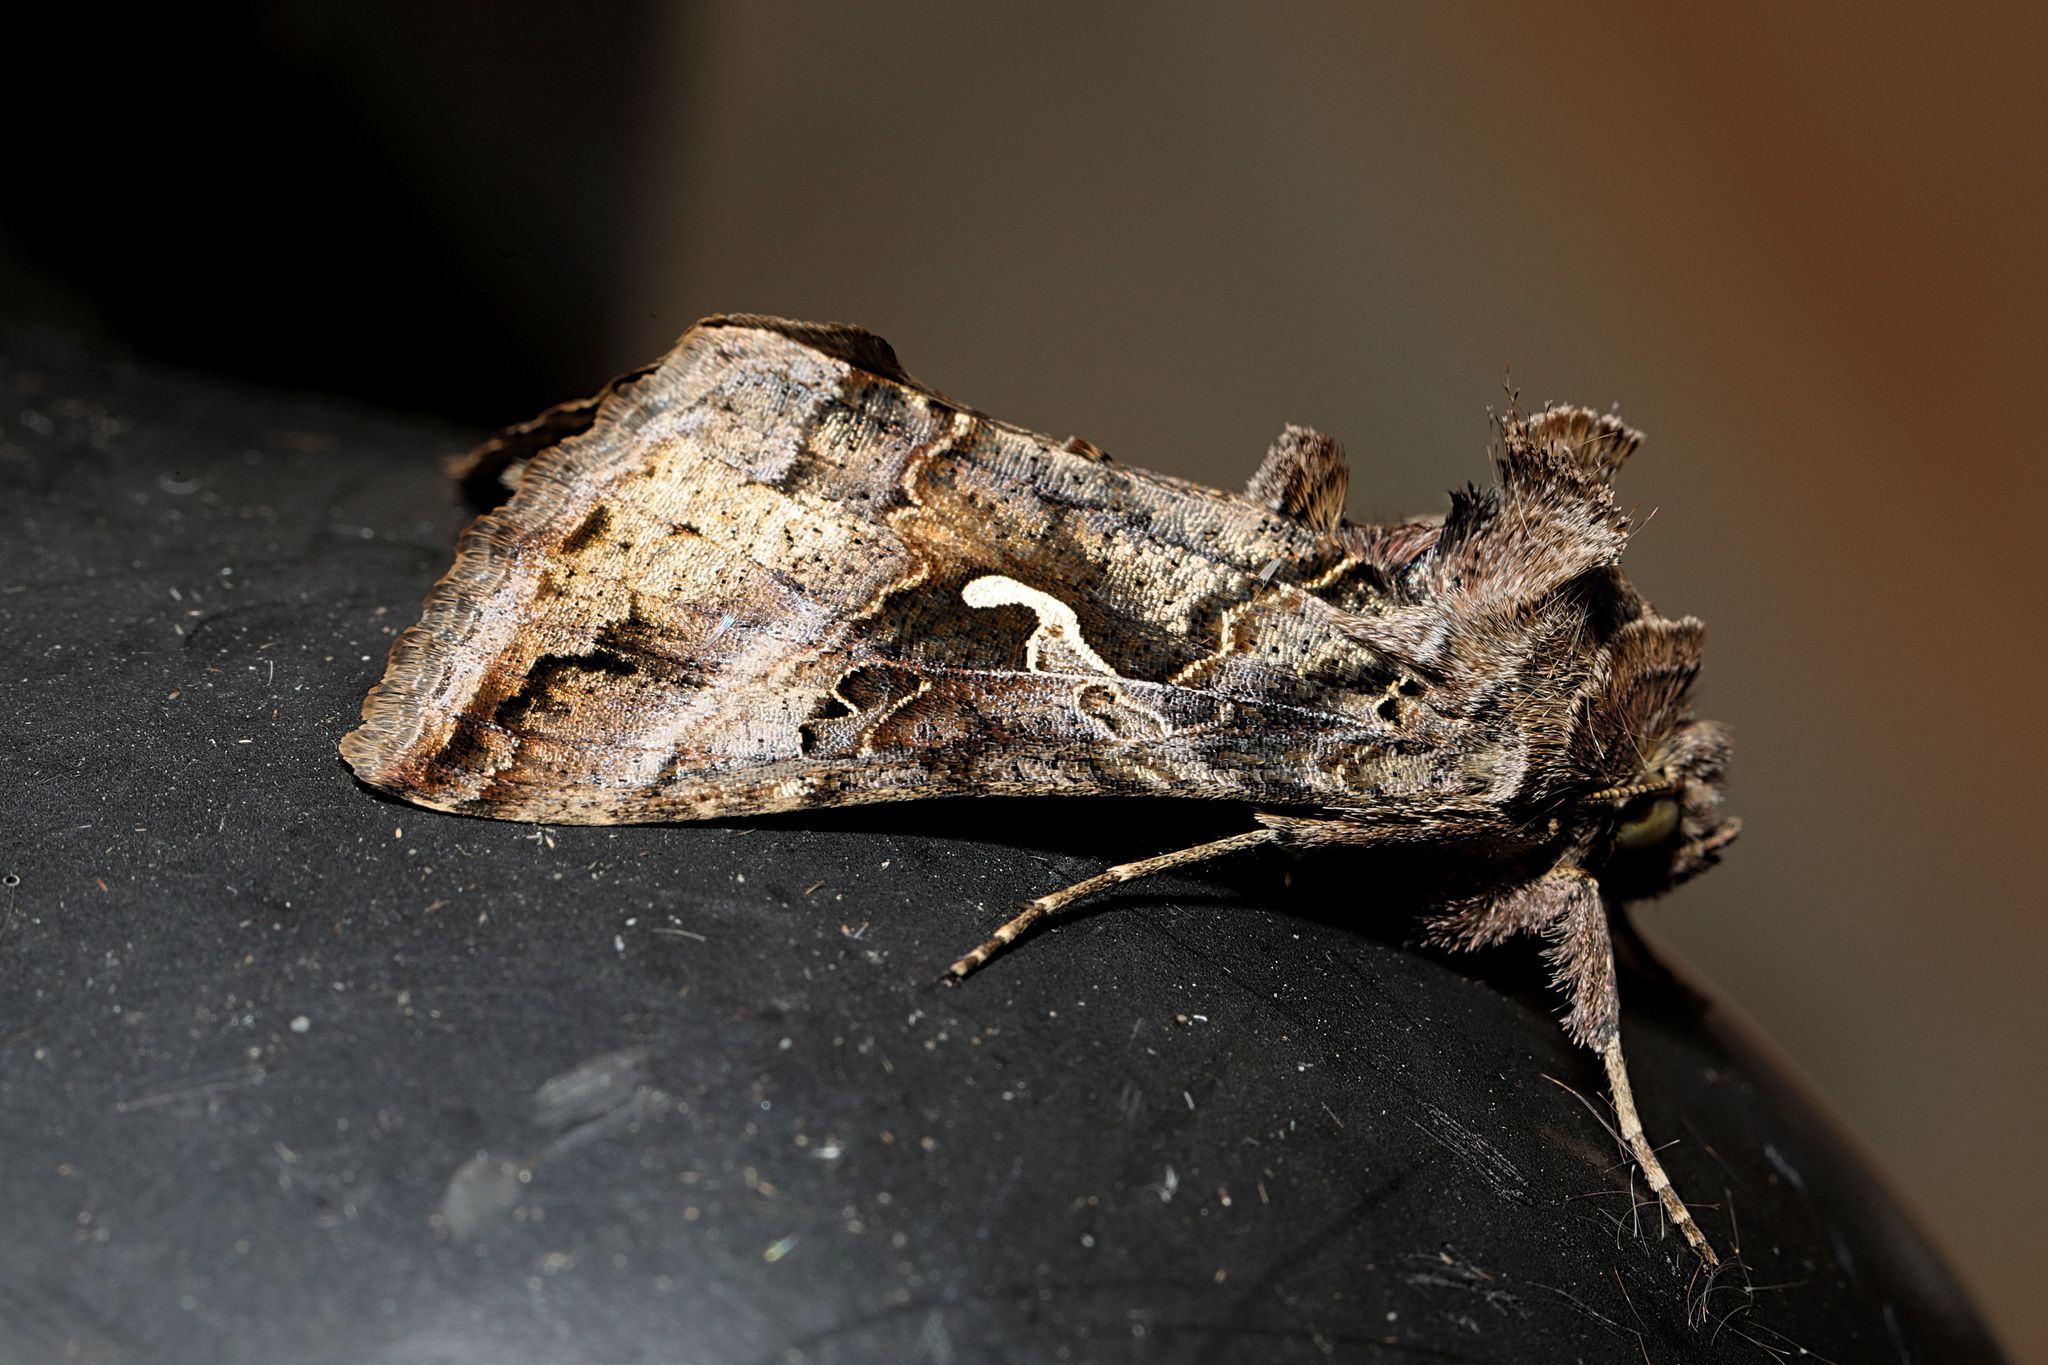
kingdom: Animalia
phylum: Arthropoda
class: Insecta
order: Lepidoptera
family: Noctuidae
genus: Autographa
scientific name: Autographa gamma
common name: Silver y
